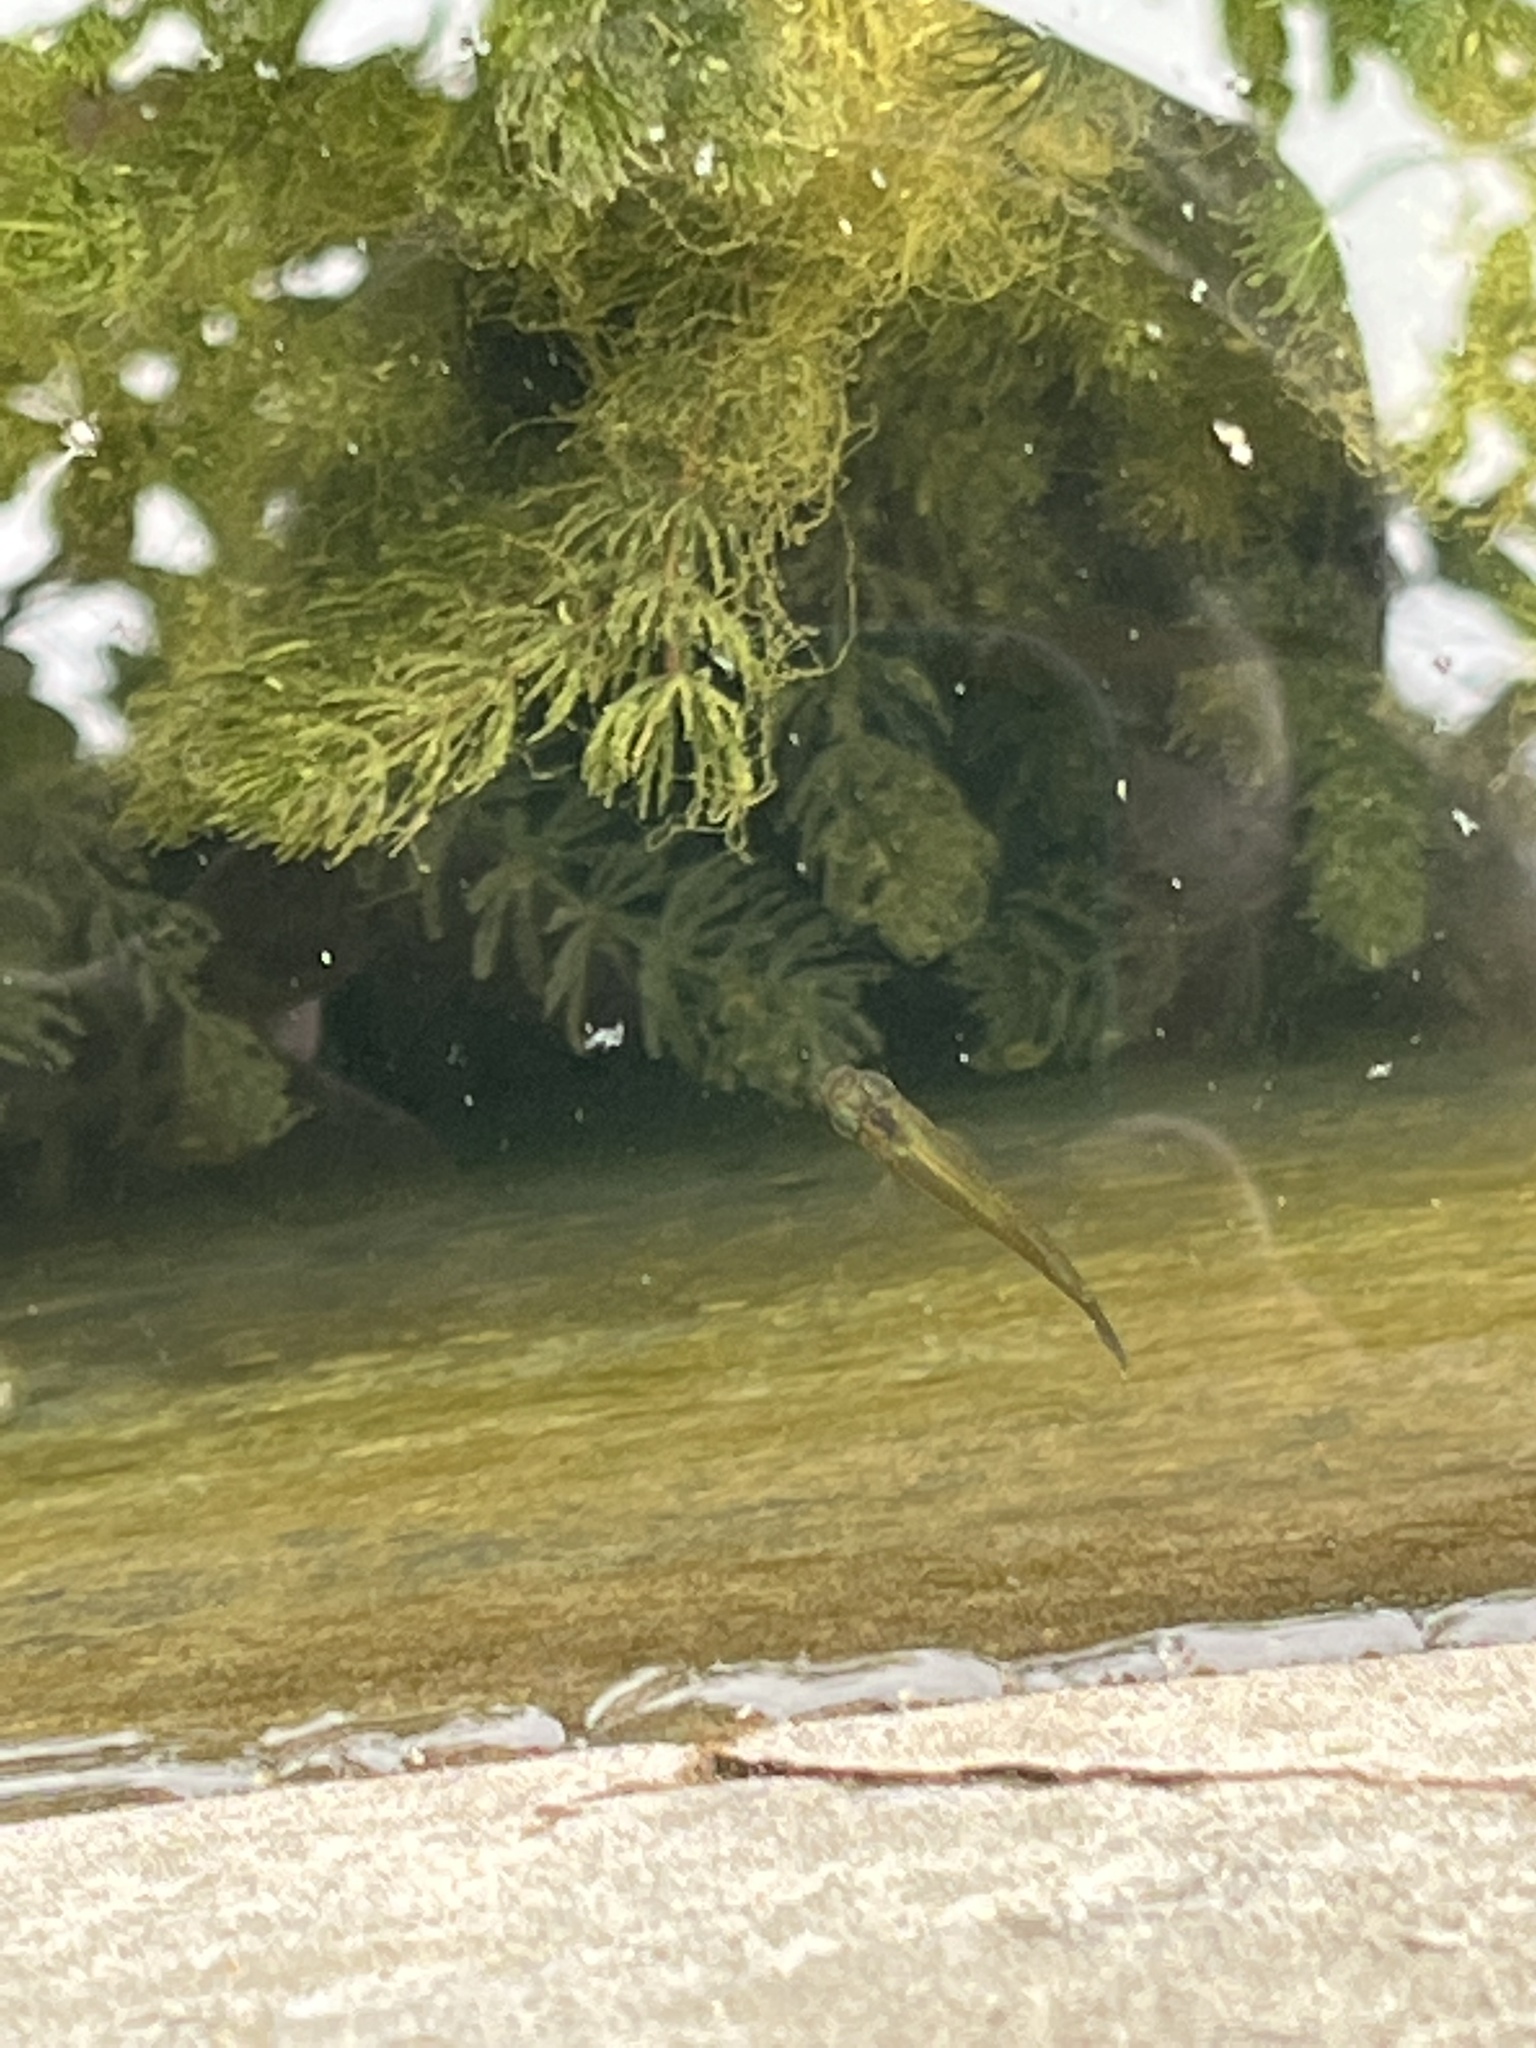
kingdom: Animalia
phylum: Chordata
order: Cyprinodontiformes
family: Poeciliidae
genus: Poecilia
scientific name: Poecilia reticulata
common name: Guppy
